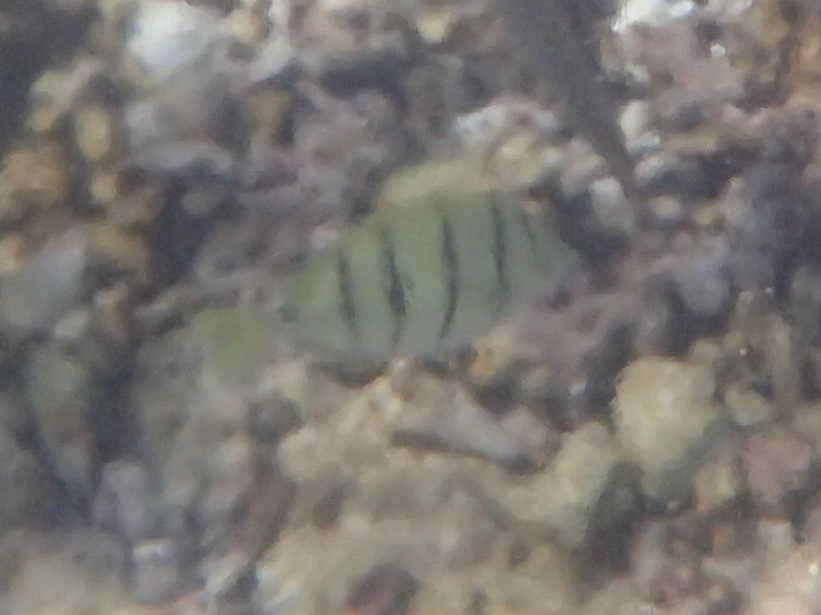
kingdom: Animalia
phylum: Chordata
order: Perciformes
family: Acanthuridae
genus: Acanthurus
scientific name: Acanthurus triostegus
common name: Convict surgeonfish
